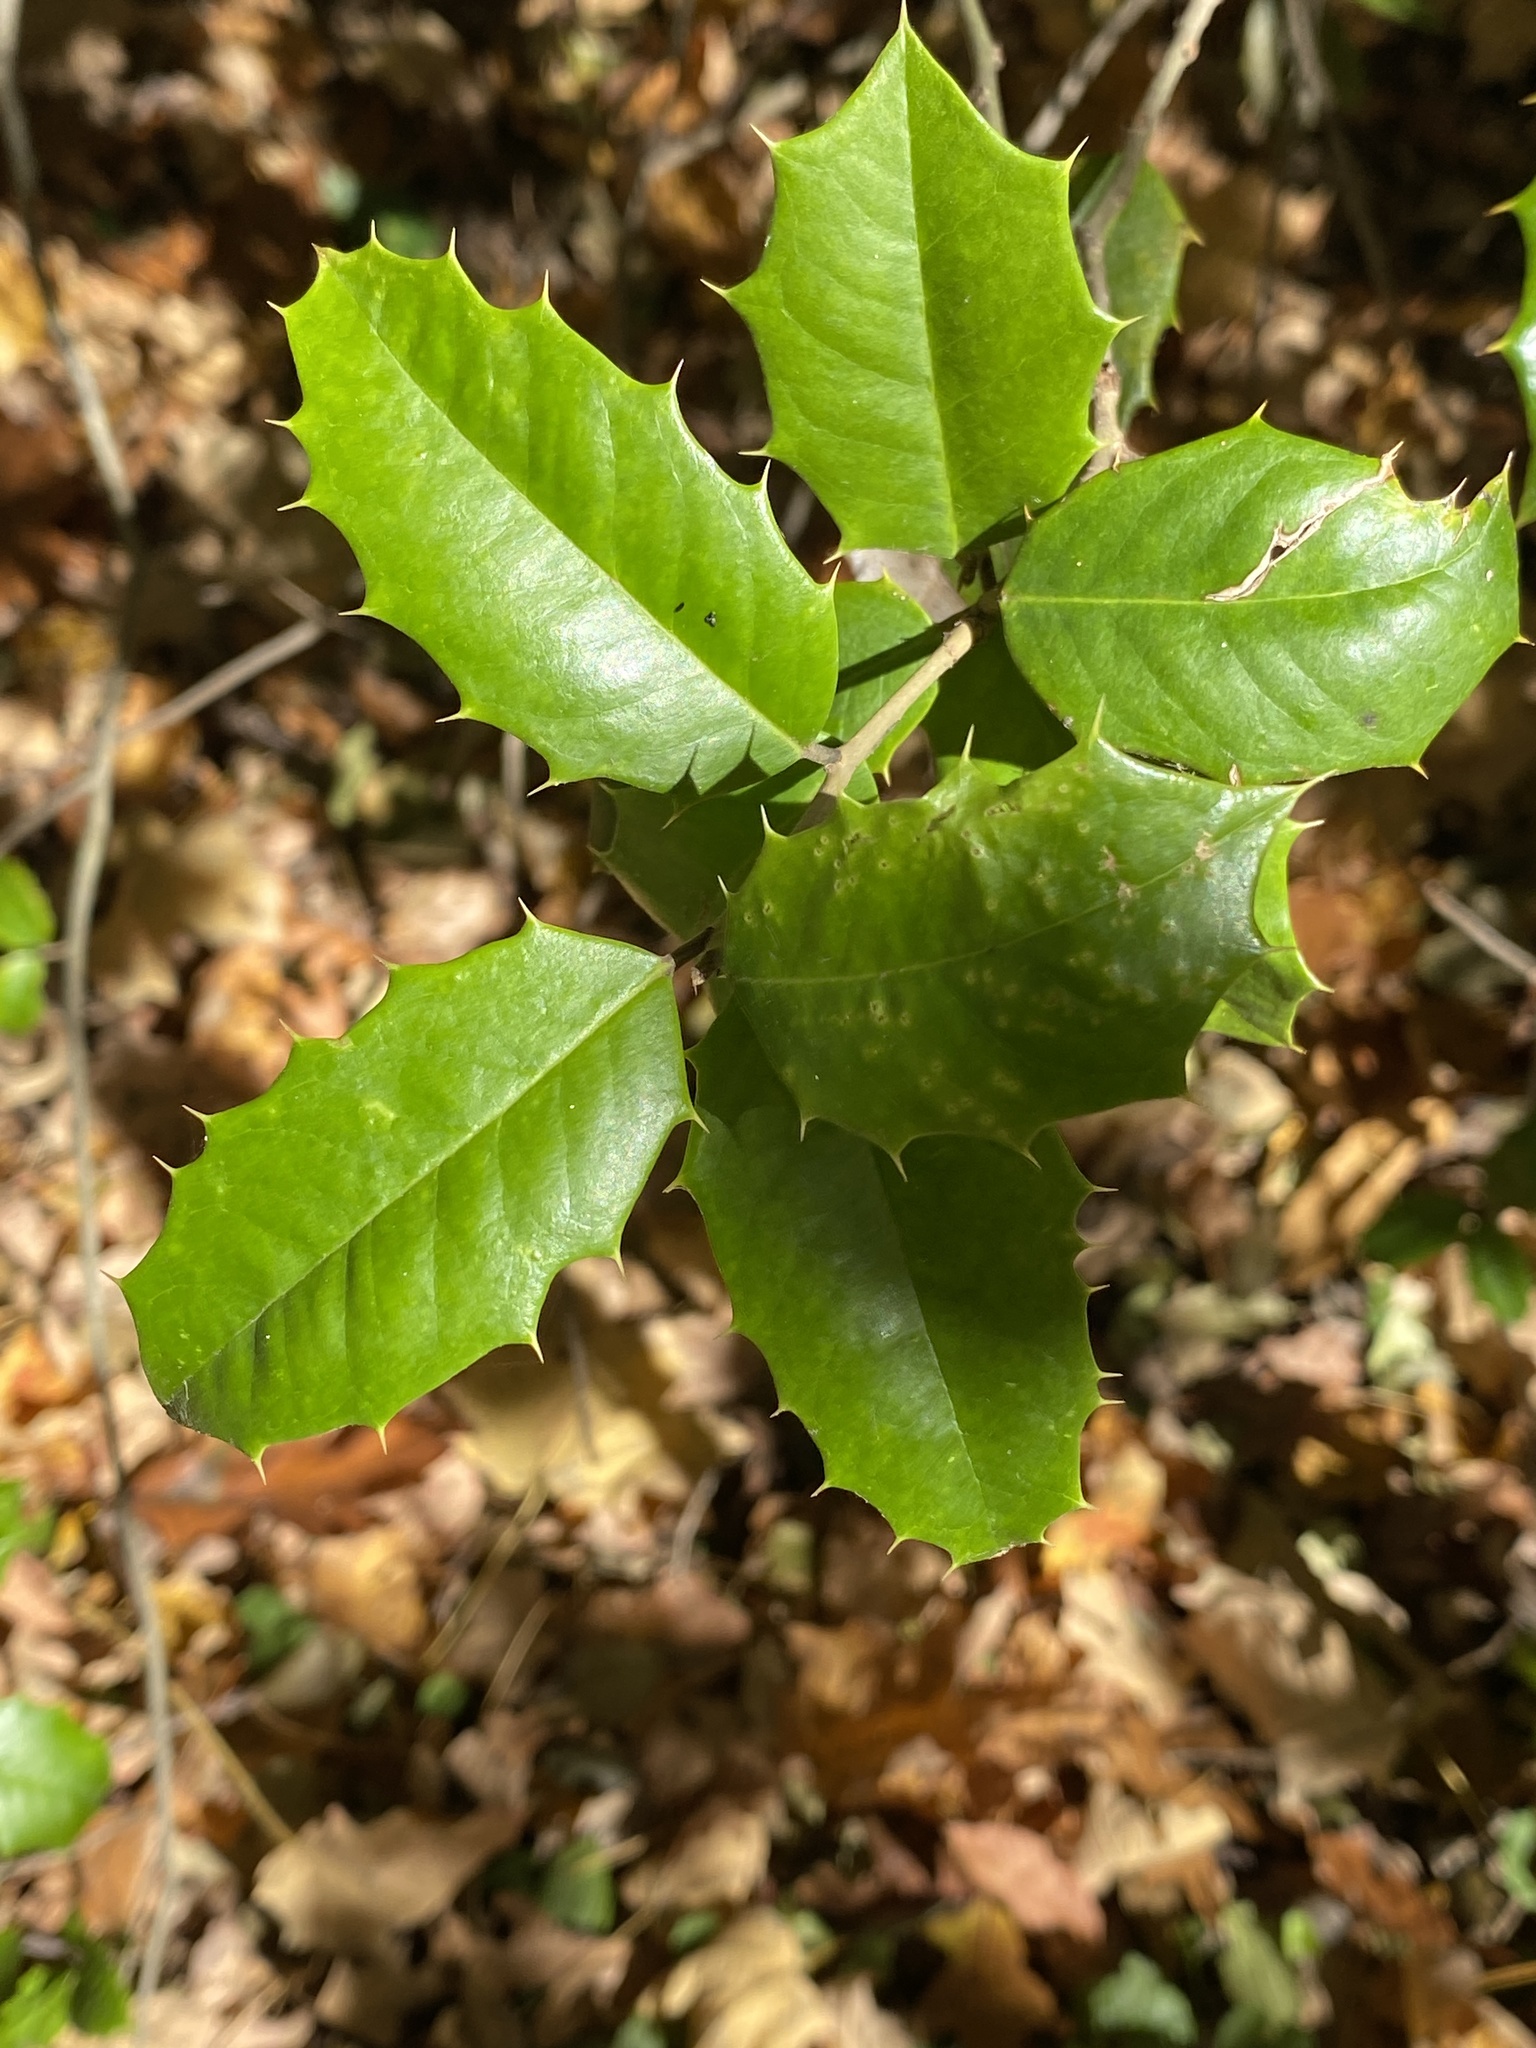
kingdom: Plantae
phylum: Tracheophyta
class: Magnoliopsida
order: Aquifoliales
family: Aquifoliaceae
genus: Ilex
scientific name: Ilex opaca
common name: American holly
